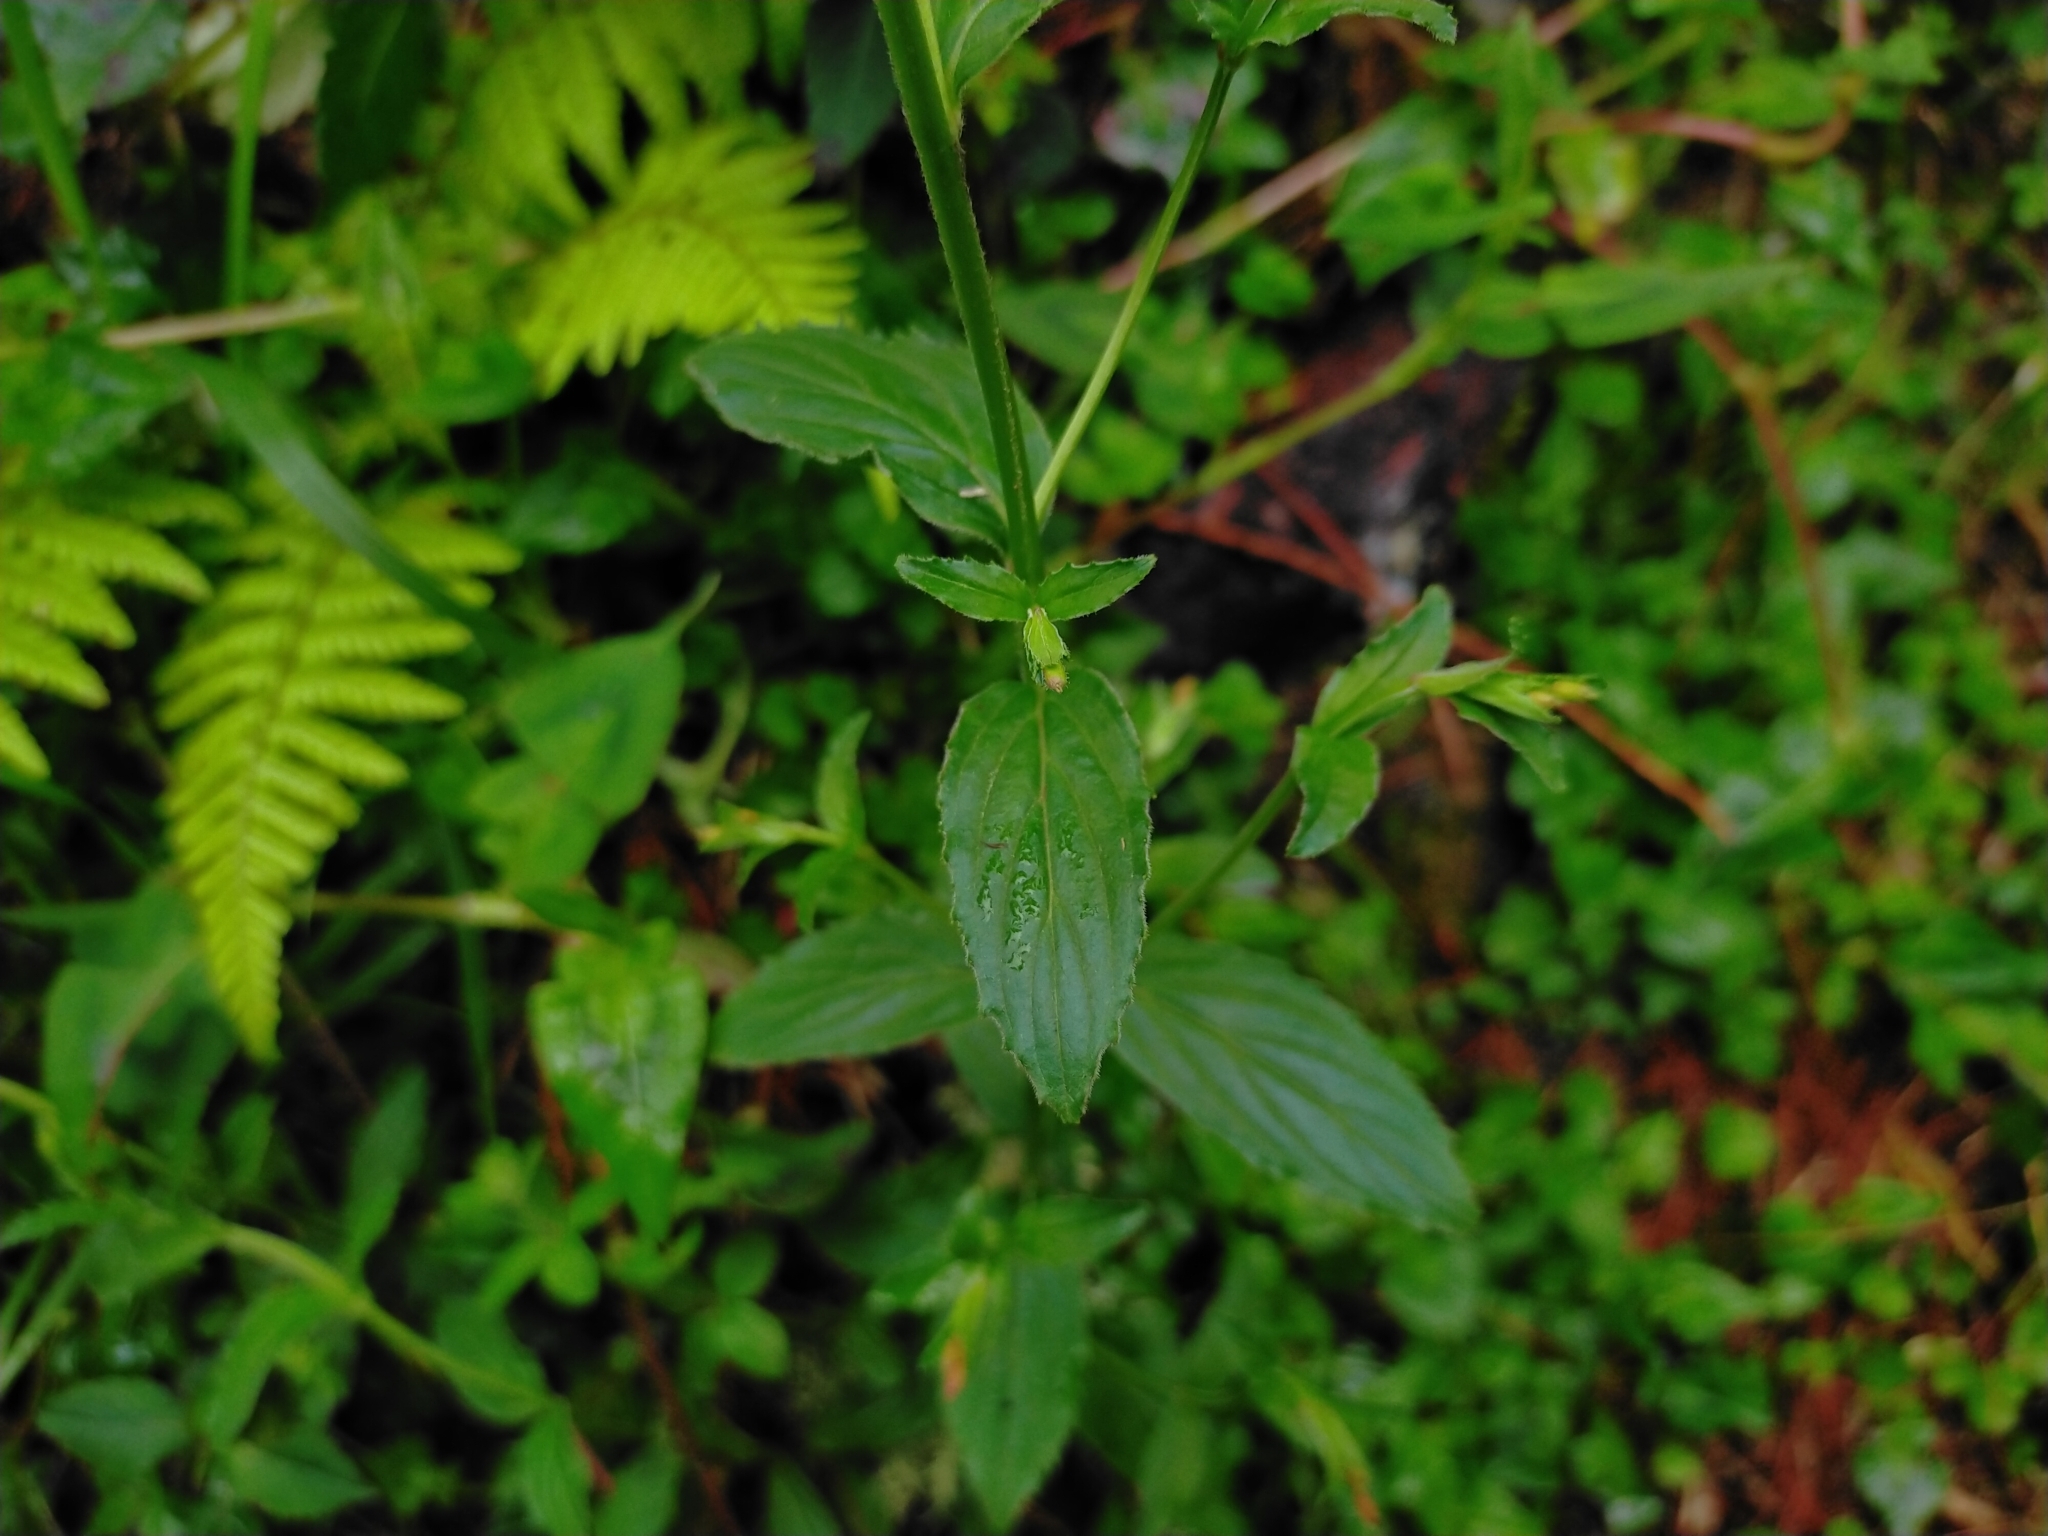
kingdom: Plantae
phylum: Tracheophyta
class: Magnoliopsida
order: Myrtales
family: Onagraceae
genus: Epilobium
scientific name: Epilobium amurense
